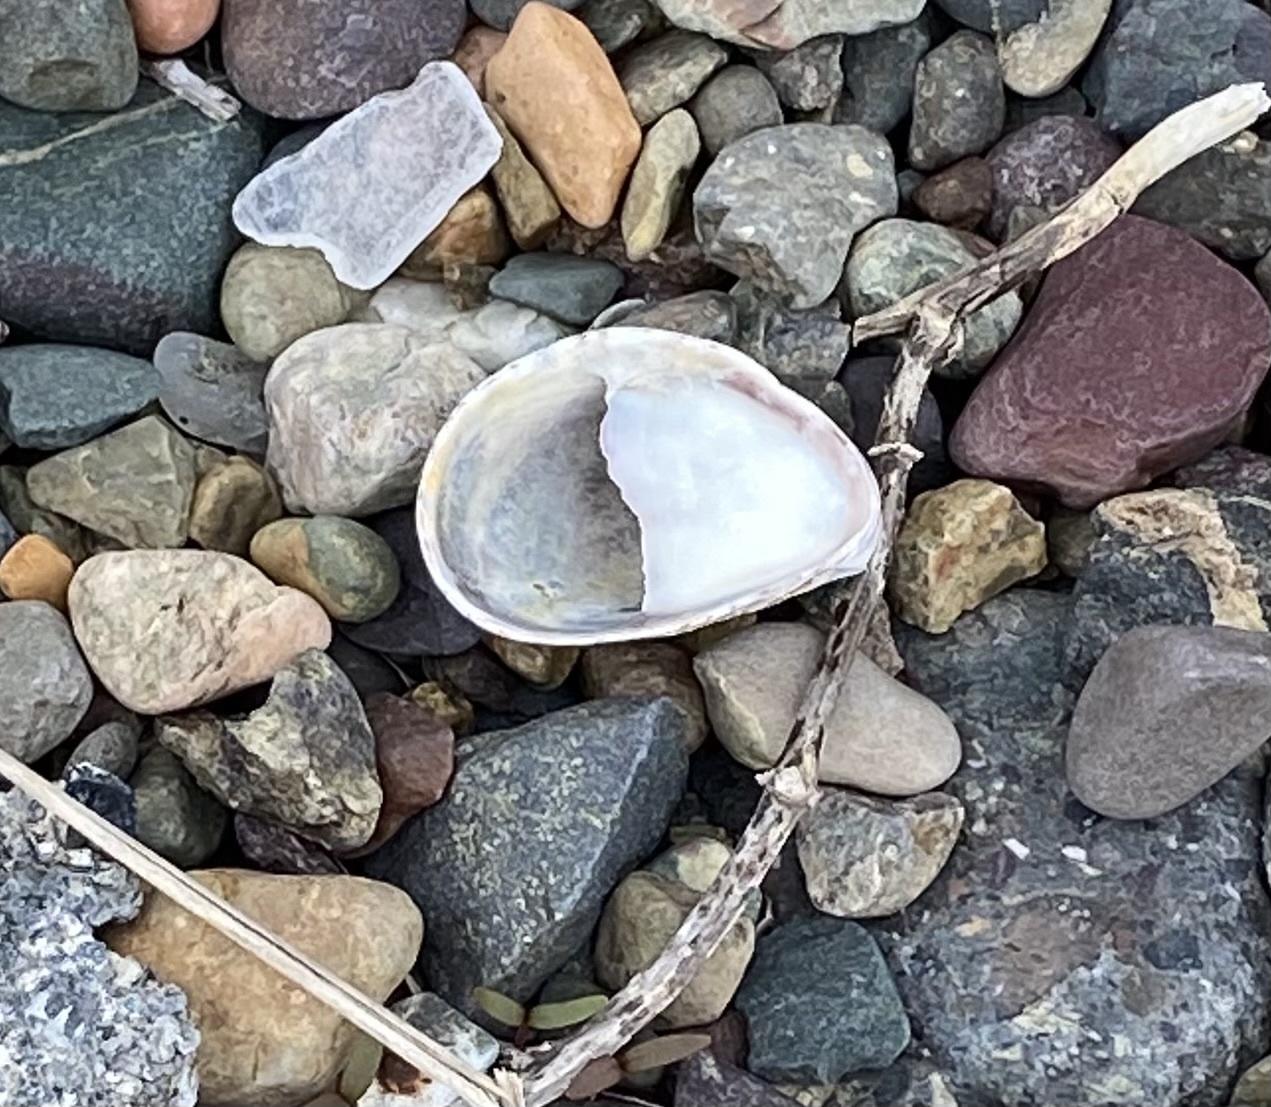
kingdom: Animalia
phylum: Mollusca
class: Gastropoda
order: Littorinimorpha
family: Calyptraeidae
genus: Crepidula
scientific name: Crepidula fornicata
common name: Slipper limpet
